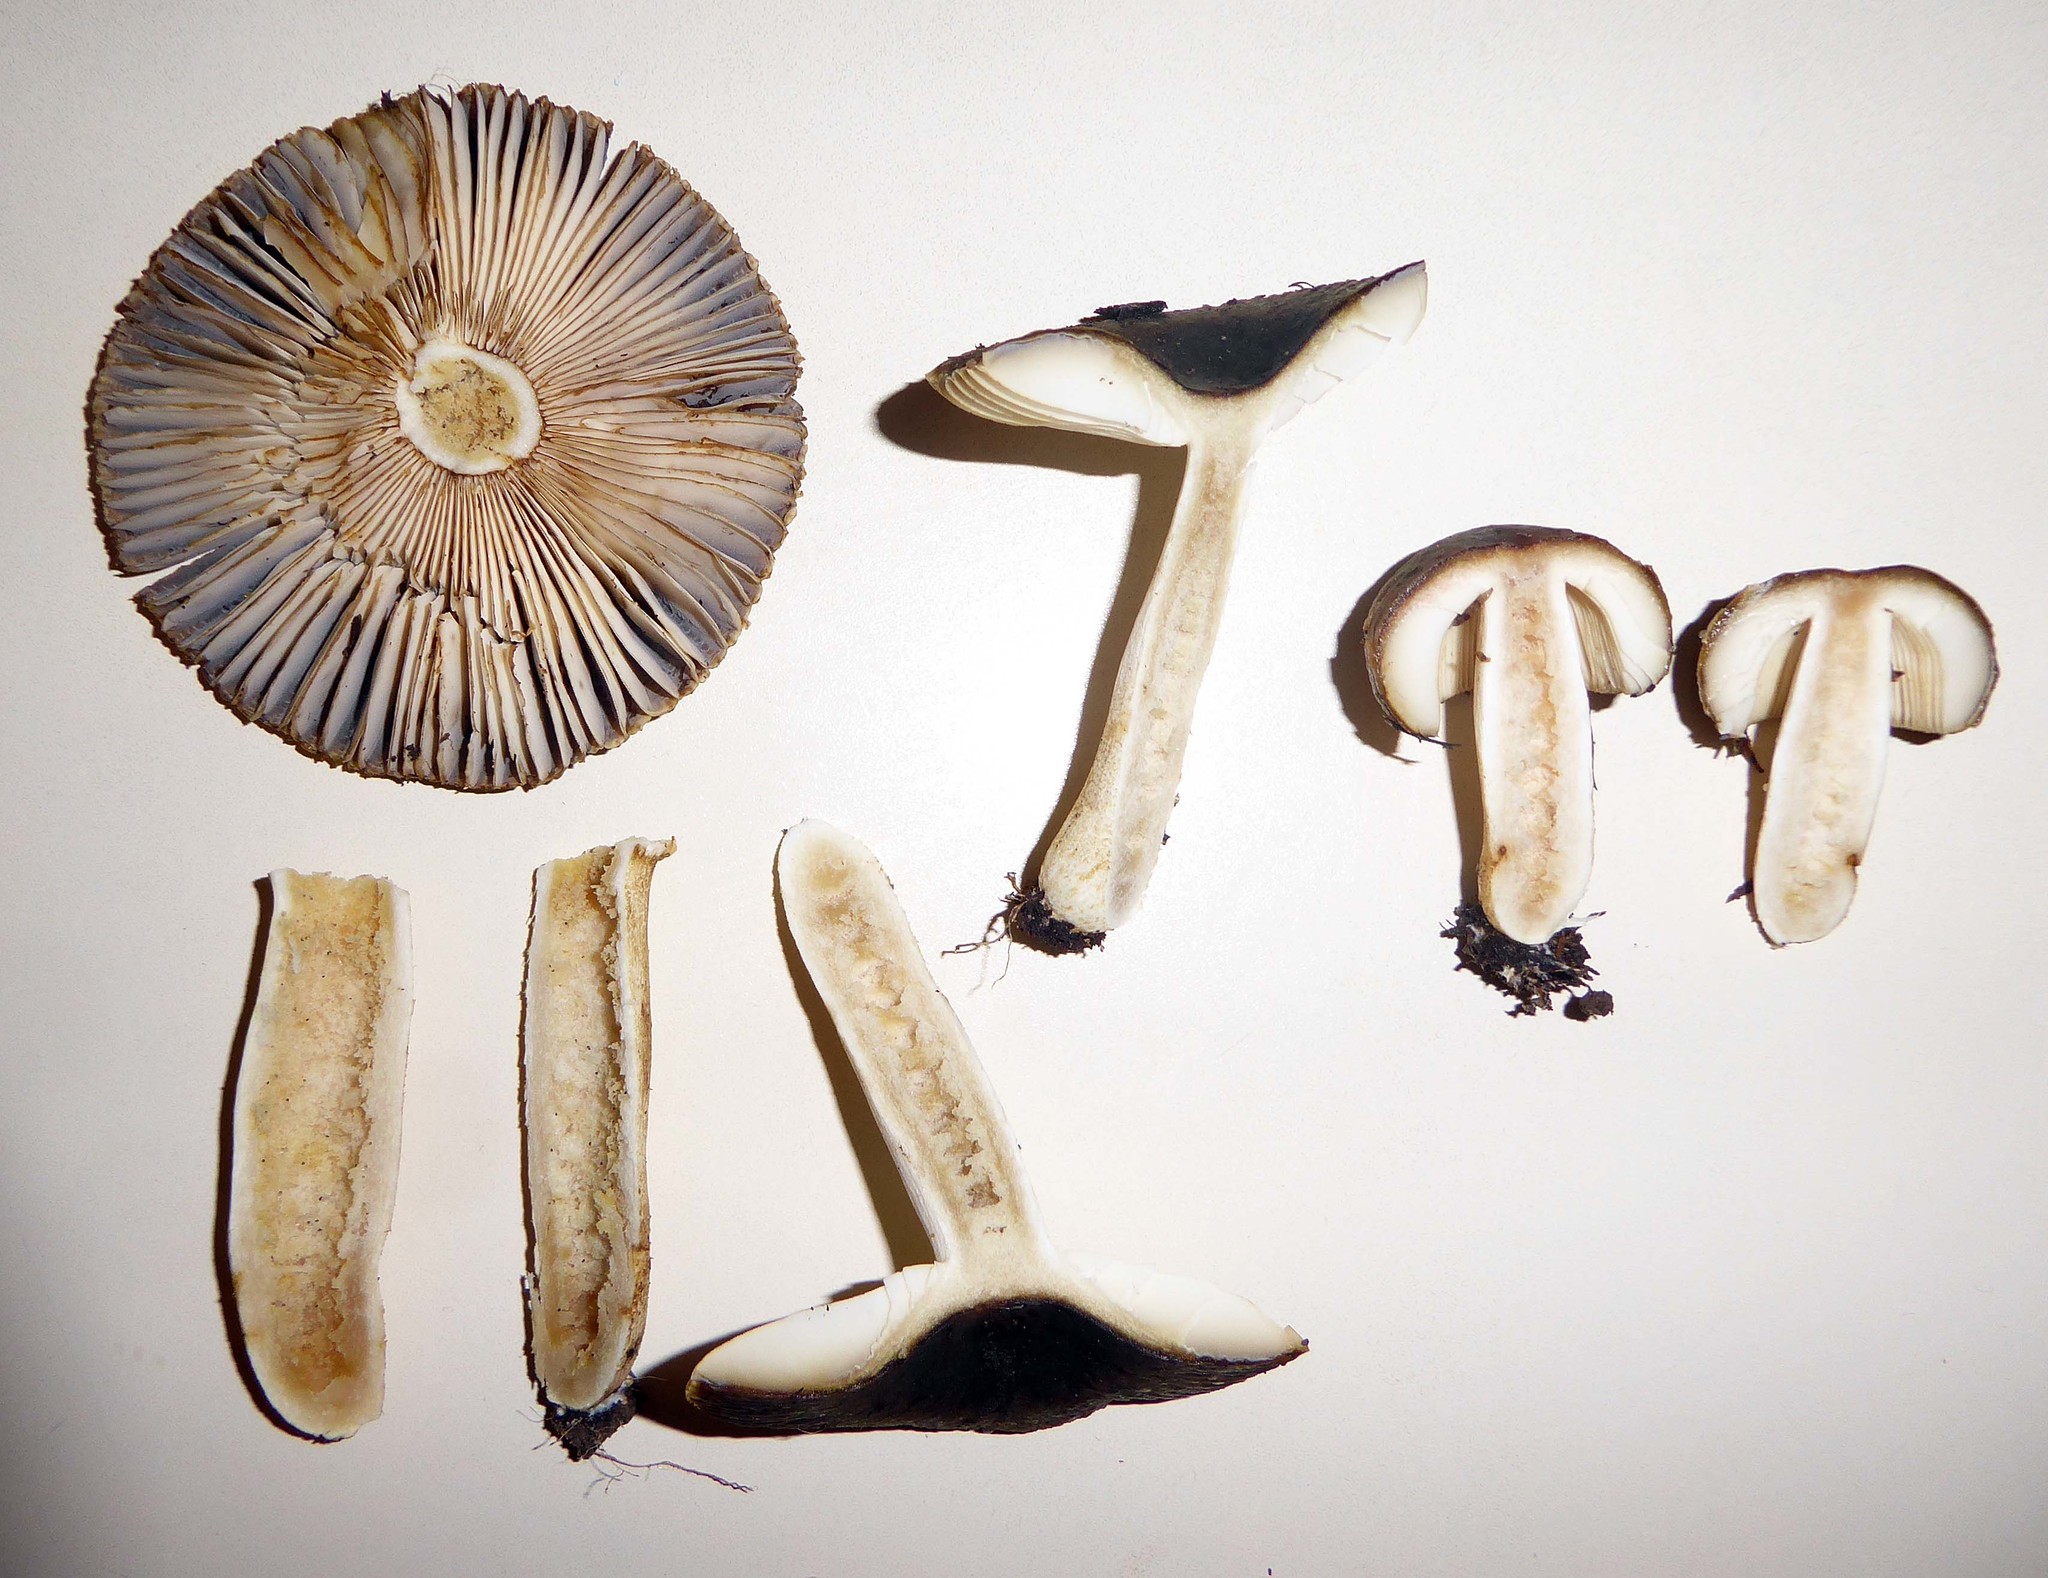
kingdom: Fungi
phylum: Basidiomycota
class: Agaricomycetes
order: Russulales
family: Russulaceae
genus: Russula
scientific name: Russula acrolamellata
